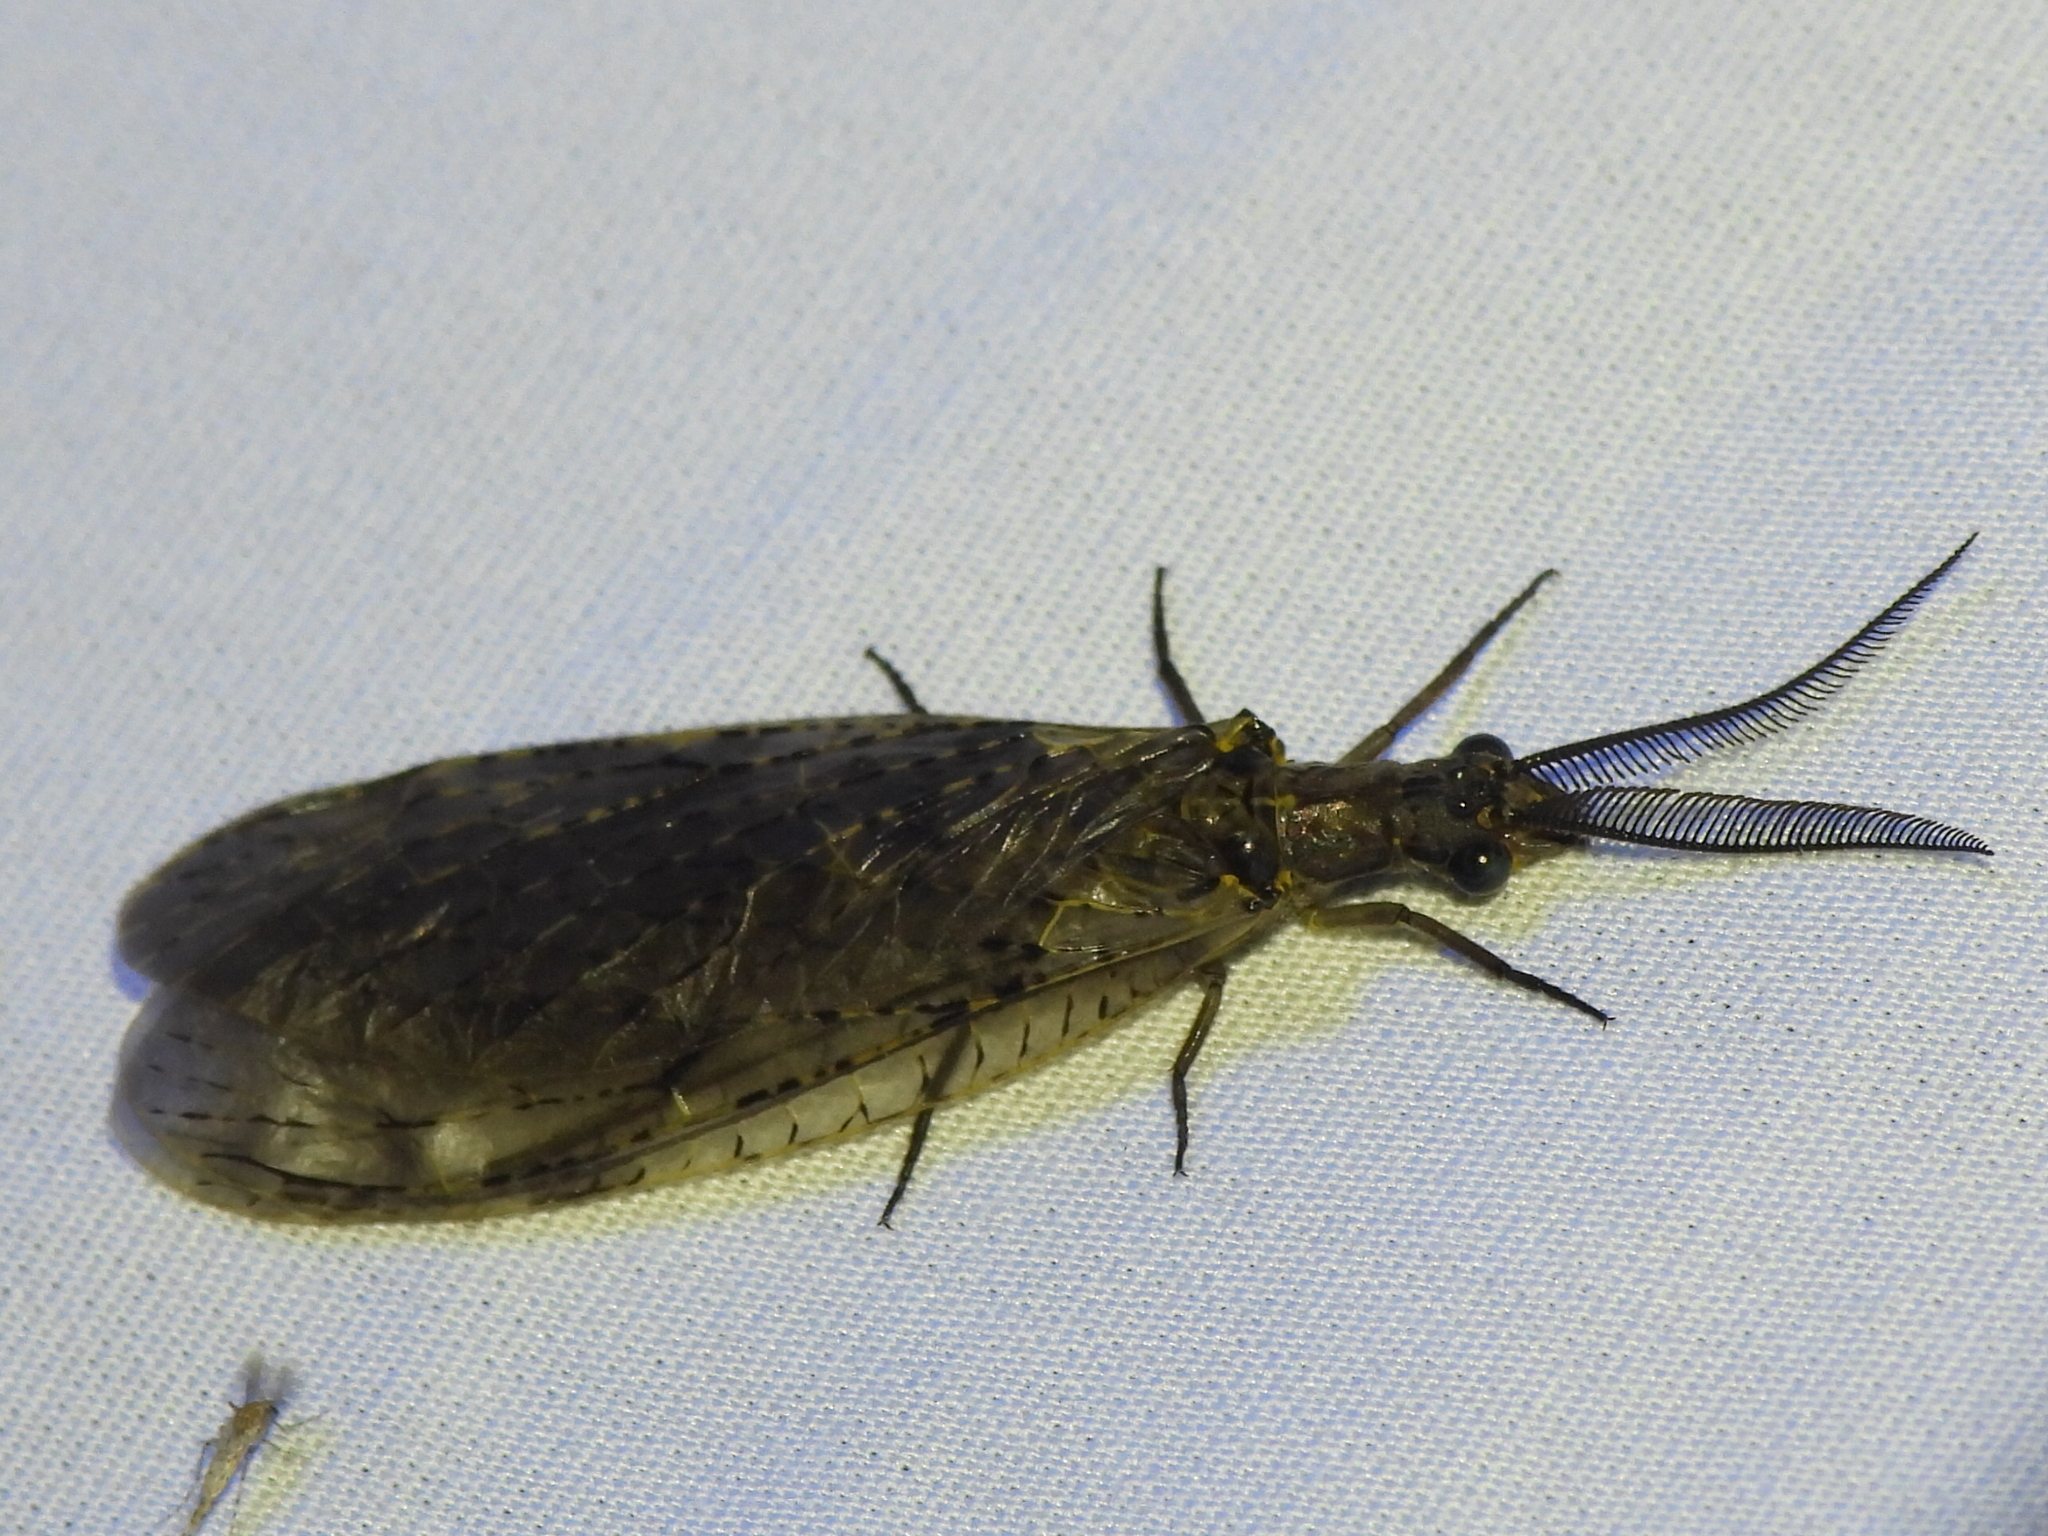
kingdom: Animalia
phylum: Arthropoda
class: Insecta
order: Megaloptera
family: Corydalidae
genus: Chauliodes
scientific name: Chauliodes rastricornis
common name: Spring fishfly
